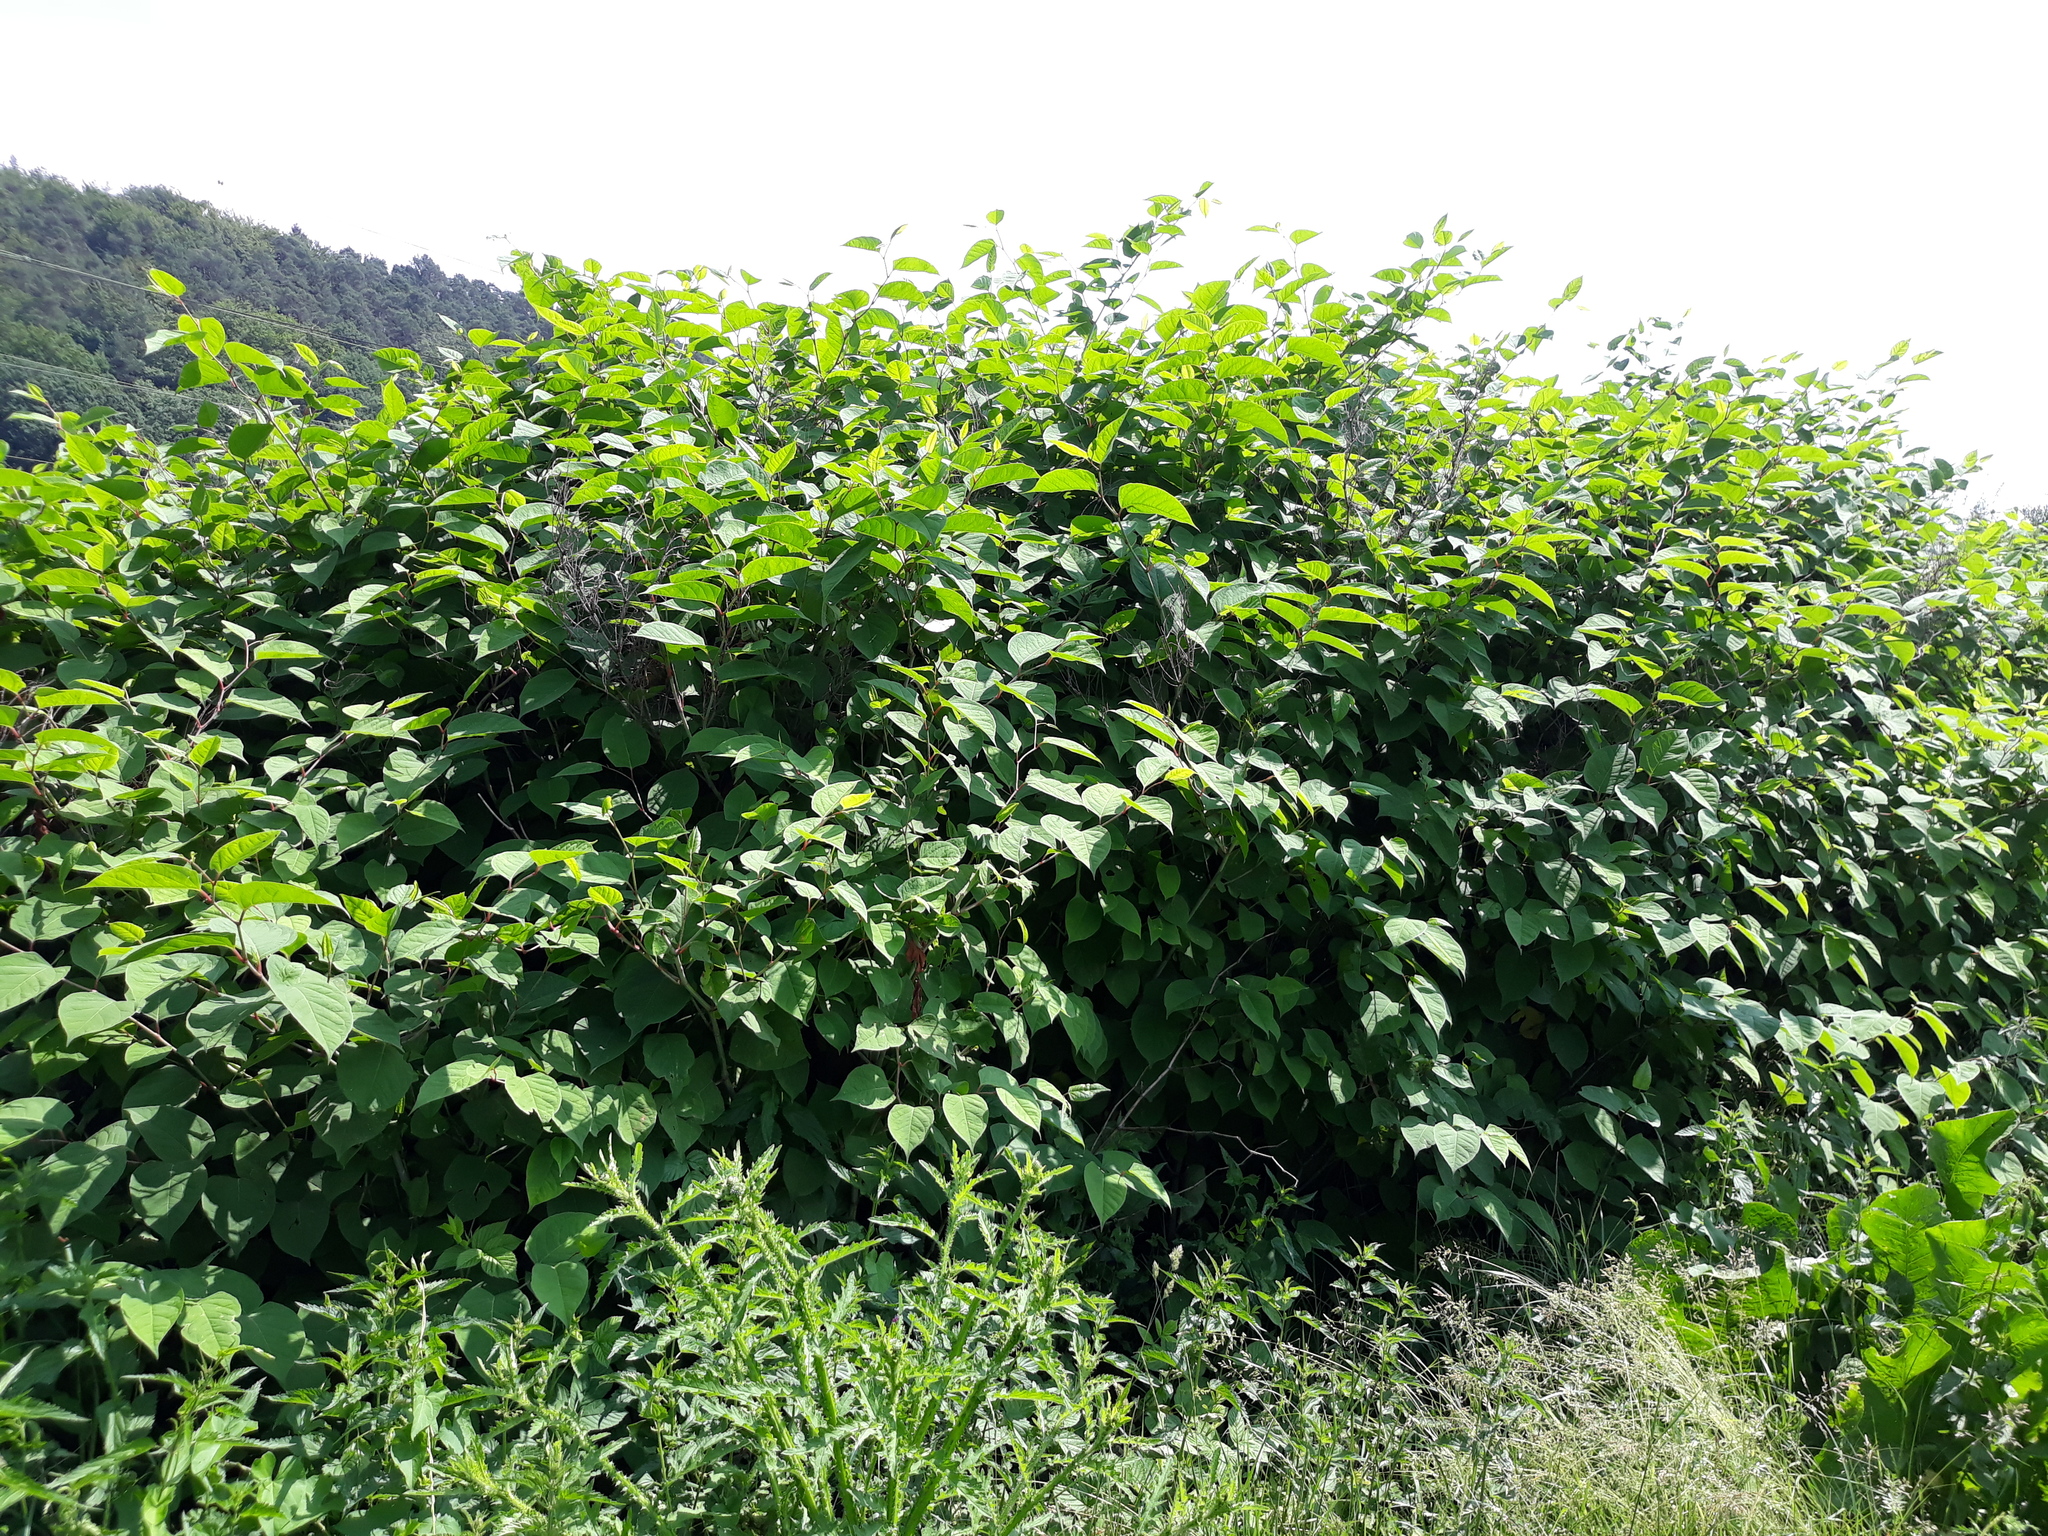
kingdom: Plantae
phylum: Tracheophyta
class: Magnoliopsida
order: Caryophyllales
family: Polygonaceae
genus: Reynoutria
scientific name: Reynoutria japonica
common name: Japanese knotweed
